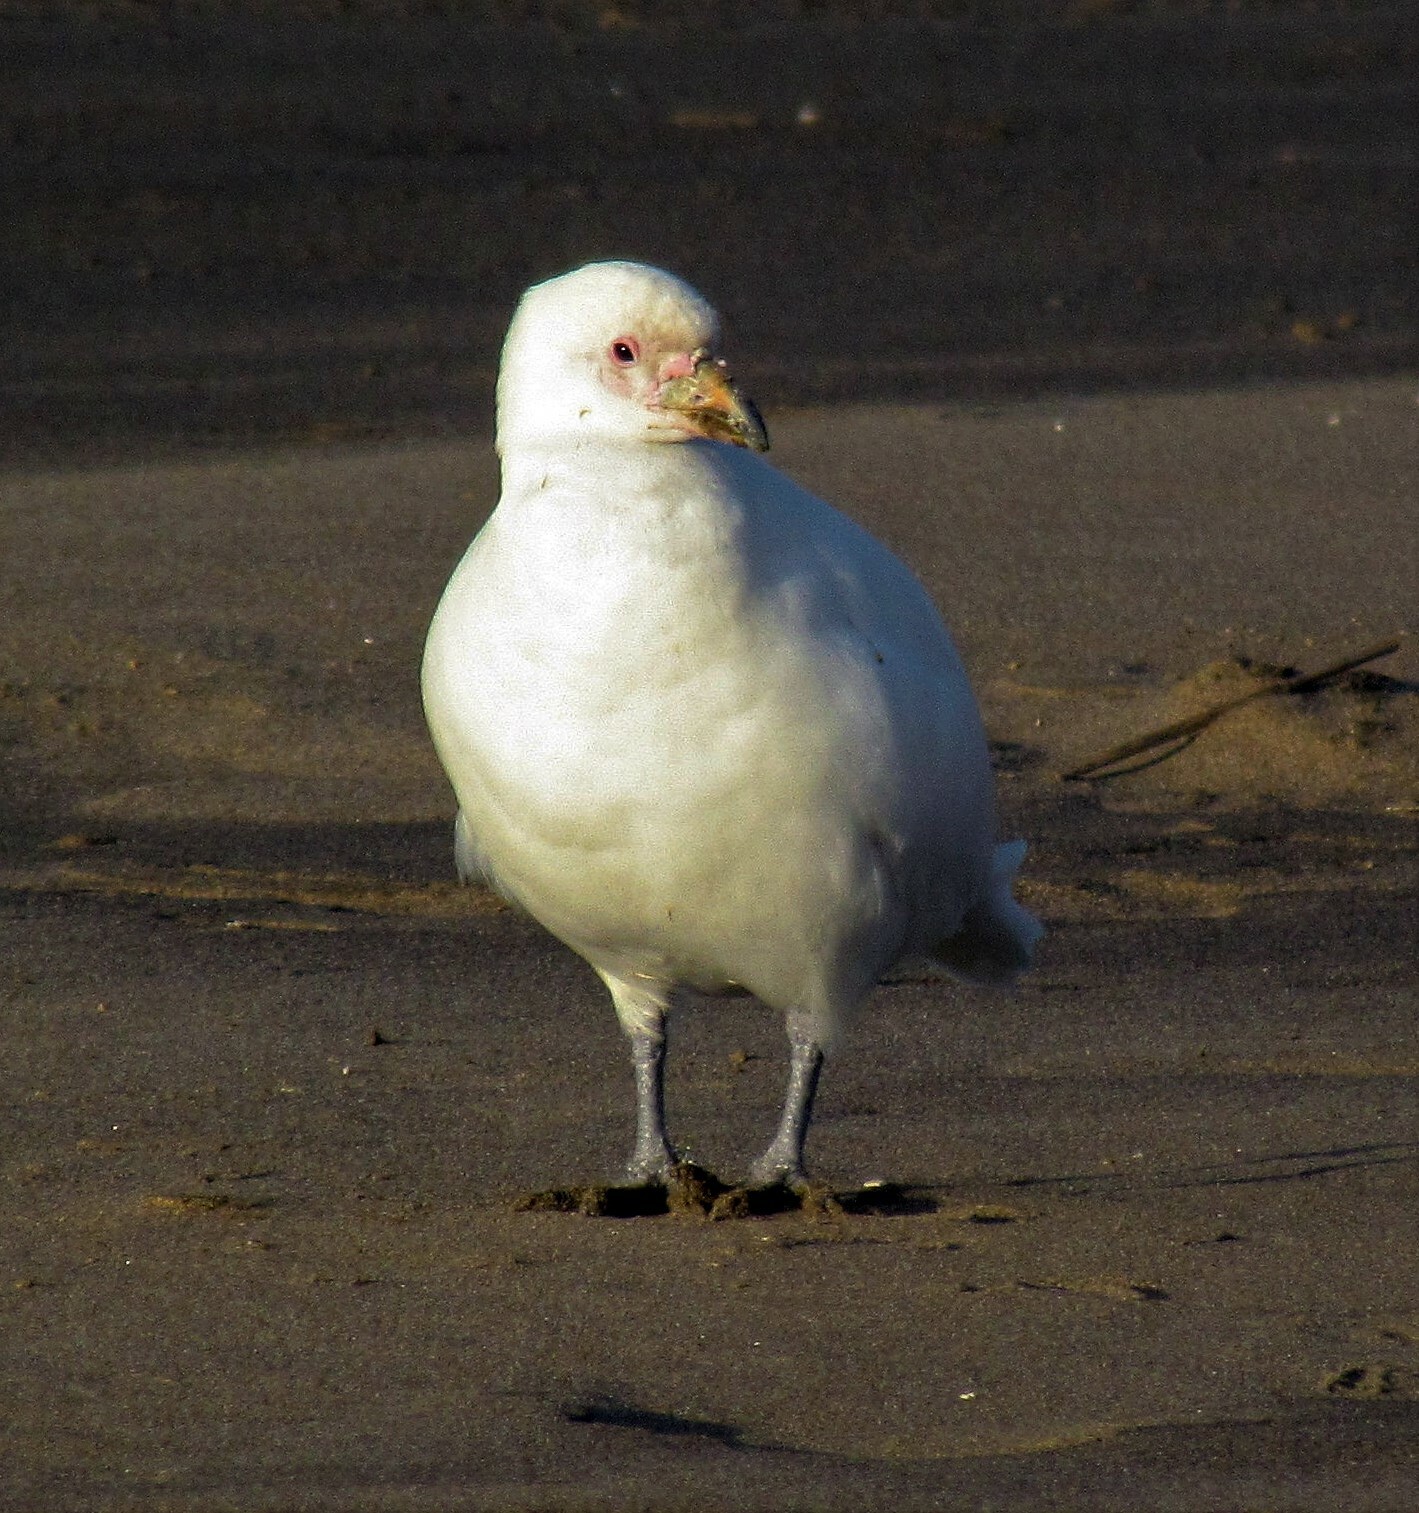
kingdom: Animalia
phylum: Chordata
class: Aves
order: Charadriiformes
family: Chionidae
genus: Chionis
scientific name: Chionis albus
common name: Snowy sheathbill
